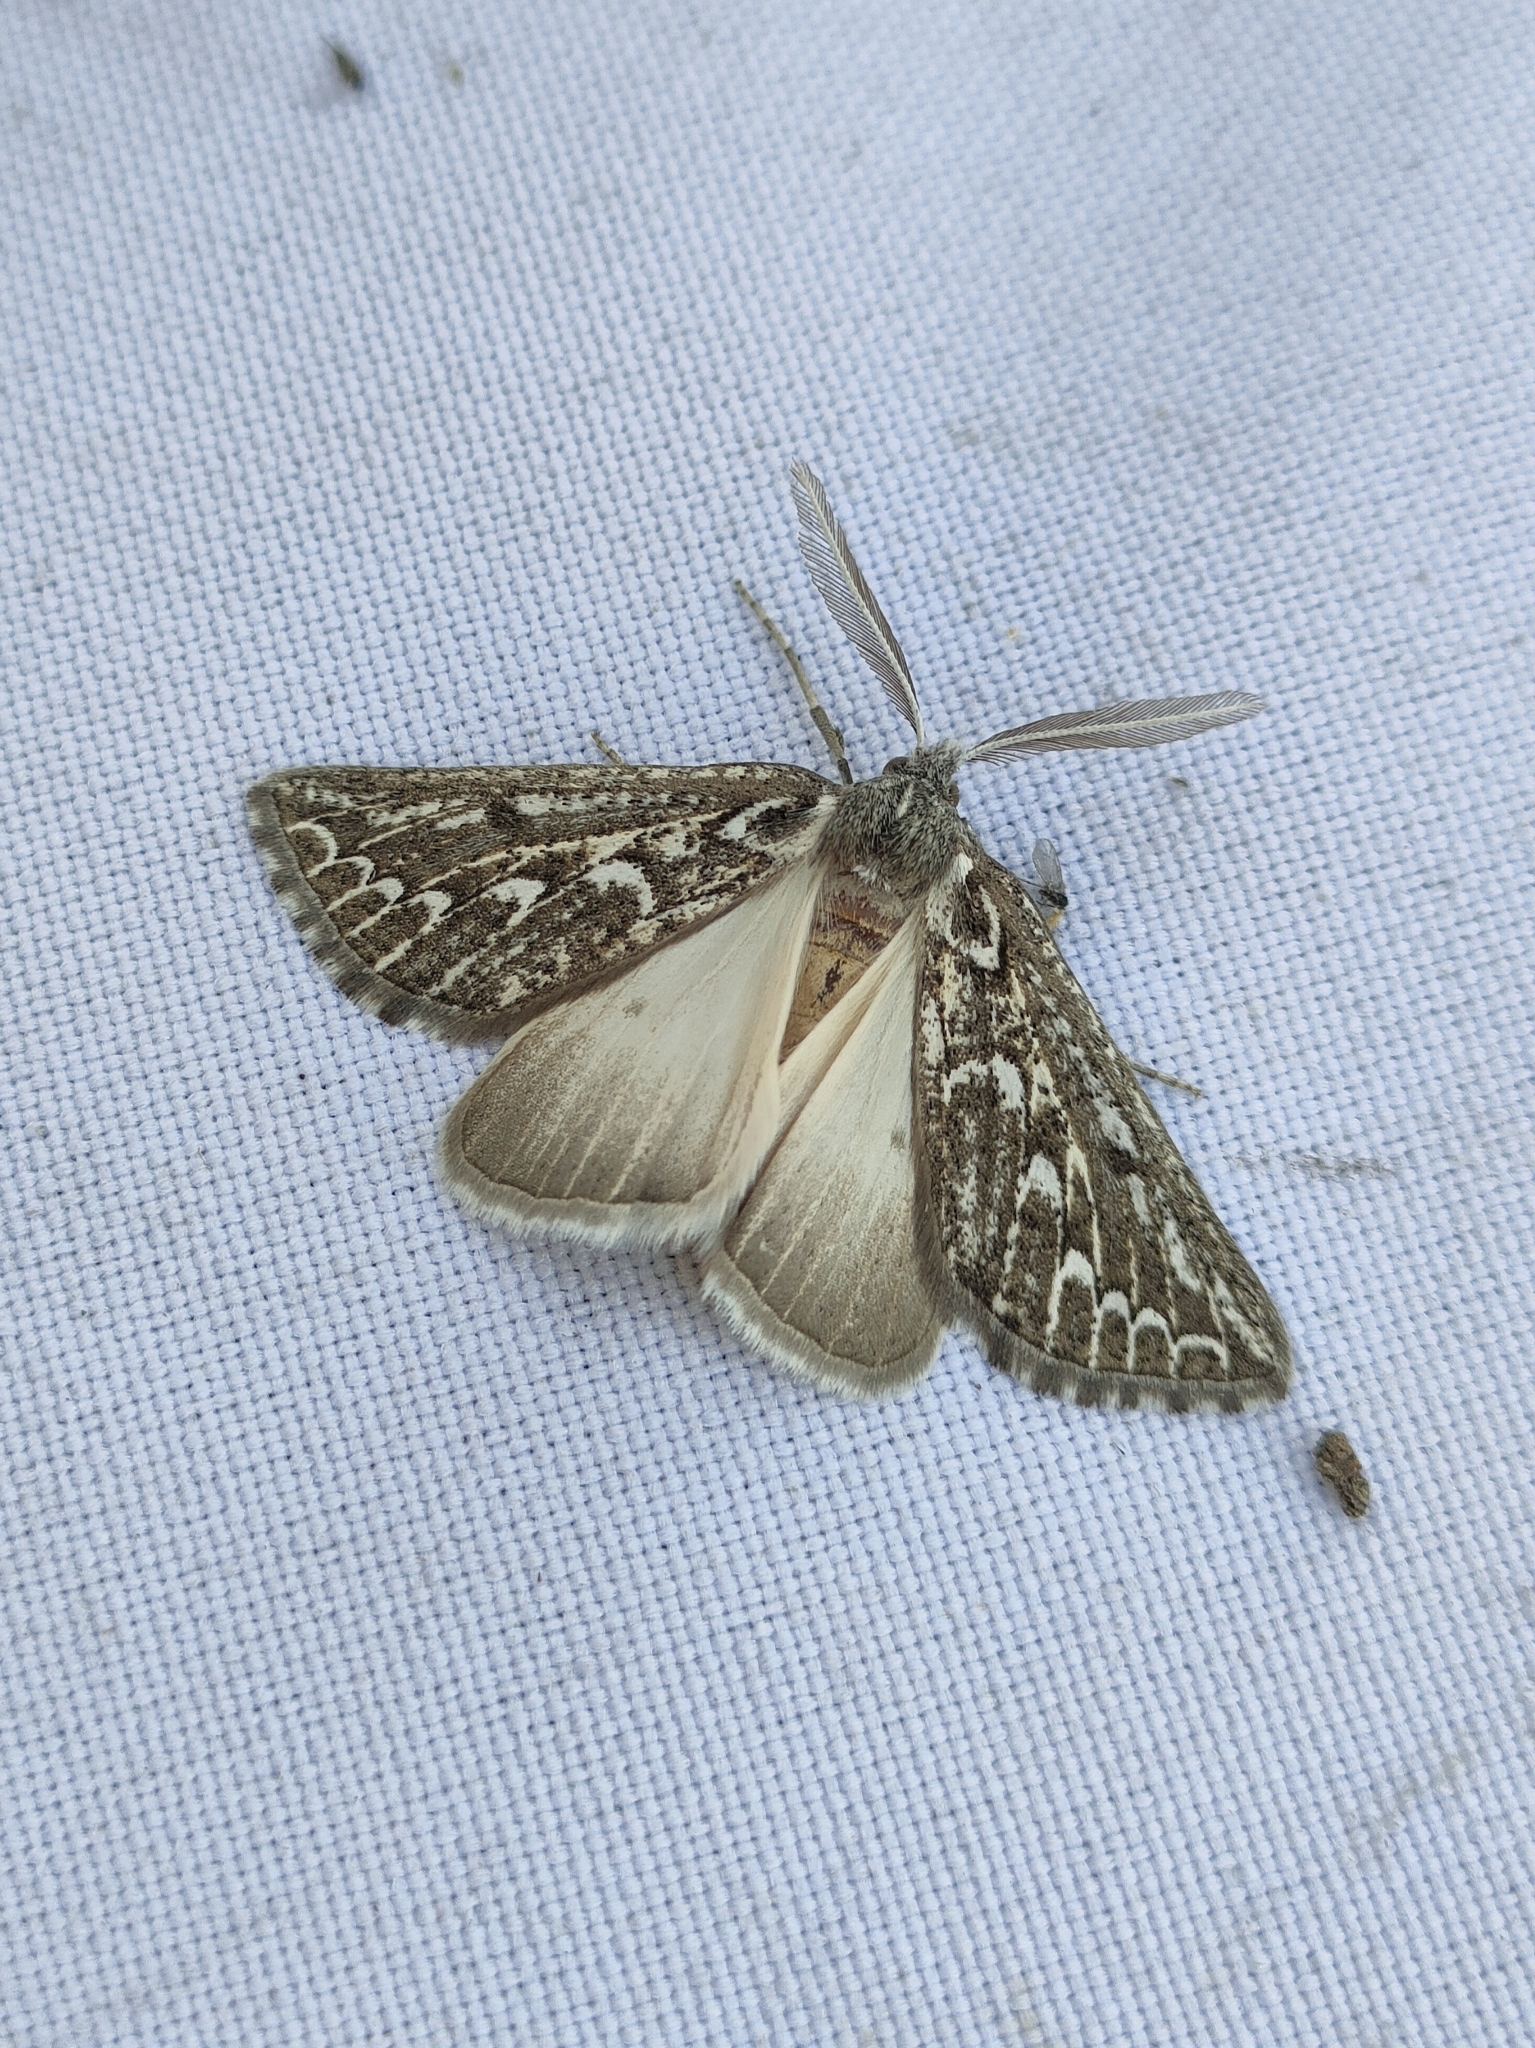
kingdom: Animalia
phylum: Arthropoda
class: Insecta
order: Lepidoptera
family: Geometridae
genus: Compsoptera
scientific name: Compsoptera jourdanaria
